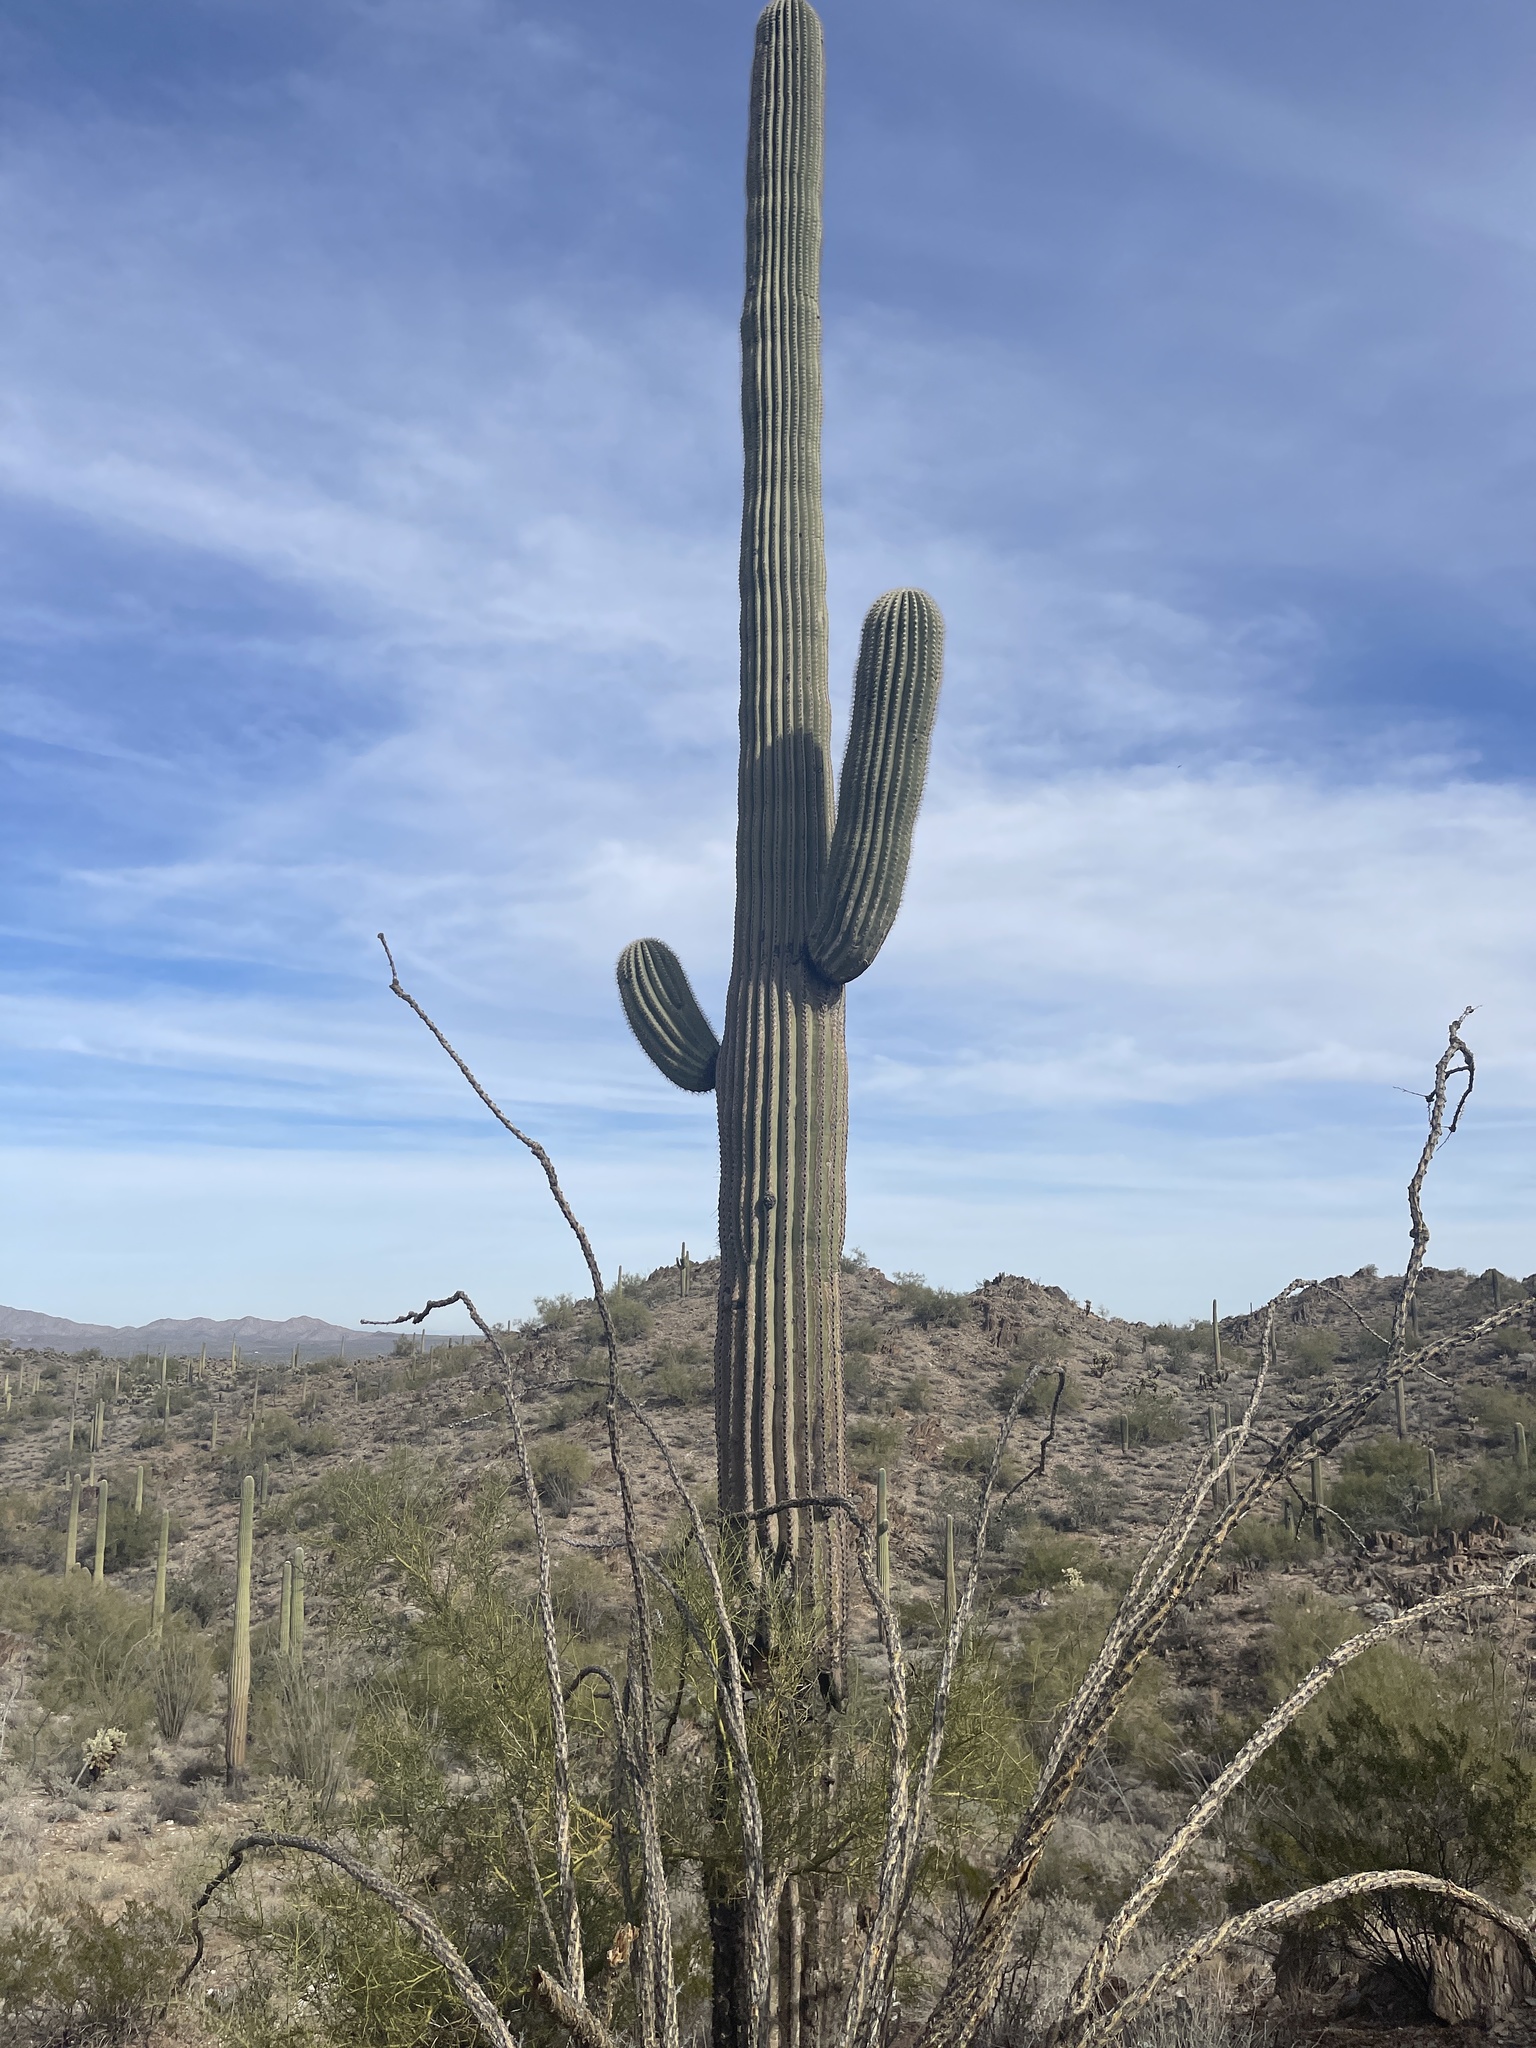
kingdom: Plantae
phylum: Tracheophyta
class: Magnoliopsida
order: Caryophyllales
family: Cactaceae
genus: Carnegiea
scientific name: Carnegiea gigantea
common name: Saguaro
